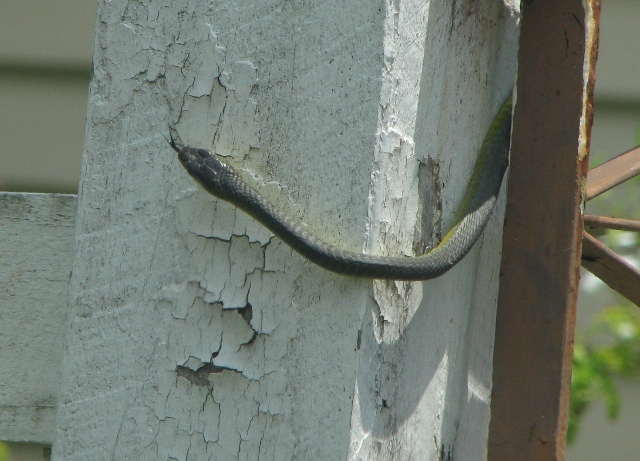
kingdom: Animalia
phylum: Chordata
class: Squamata
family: Colubridae
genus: Dendrelaphis
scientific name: Dendrelaphis punctulatus
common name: Common tree snake
